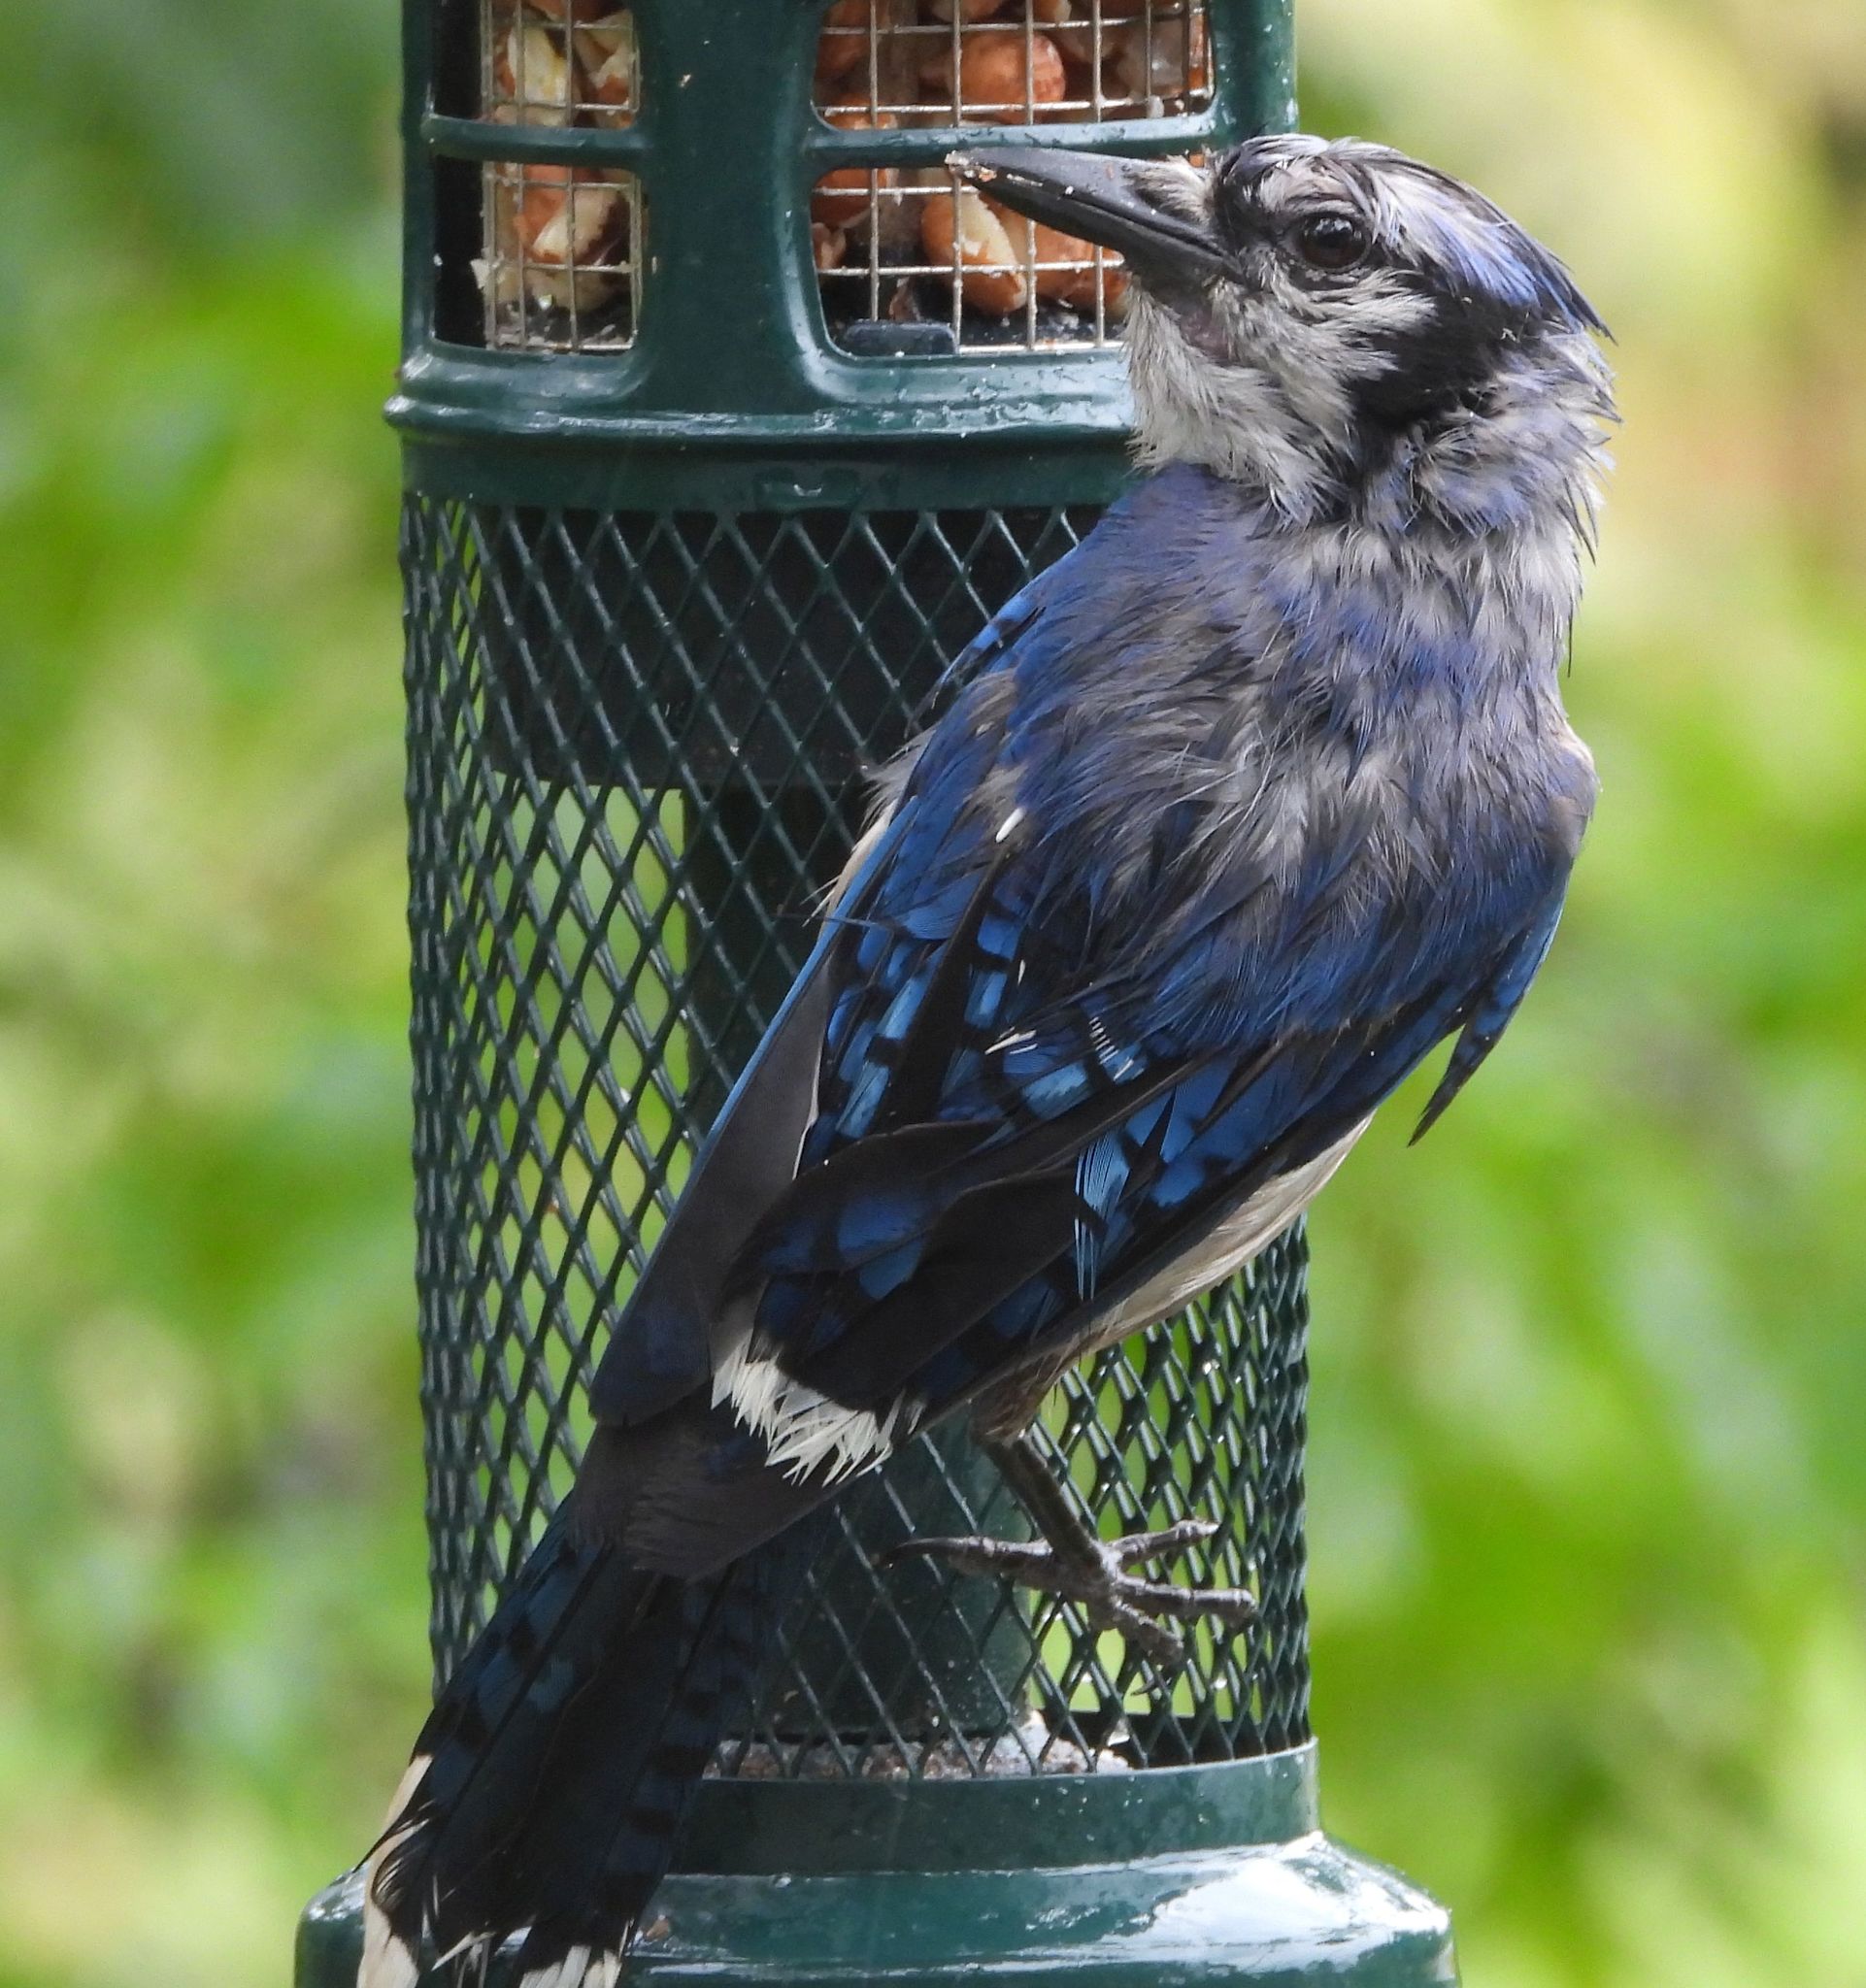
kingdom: Animalia
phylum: Chordata
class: Aves
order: Passeriformes
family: Corvidae
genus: Cyanocitta
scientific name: Cyanocitta cristata
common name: Blue jay
